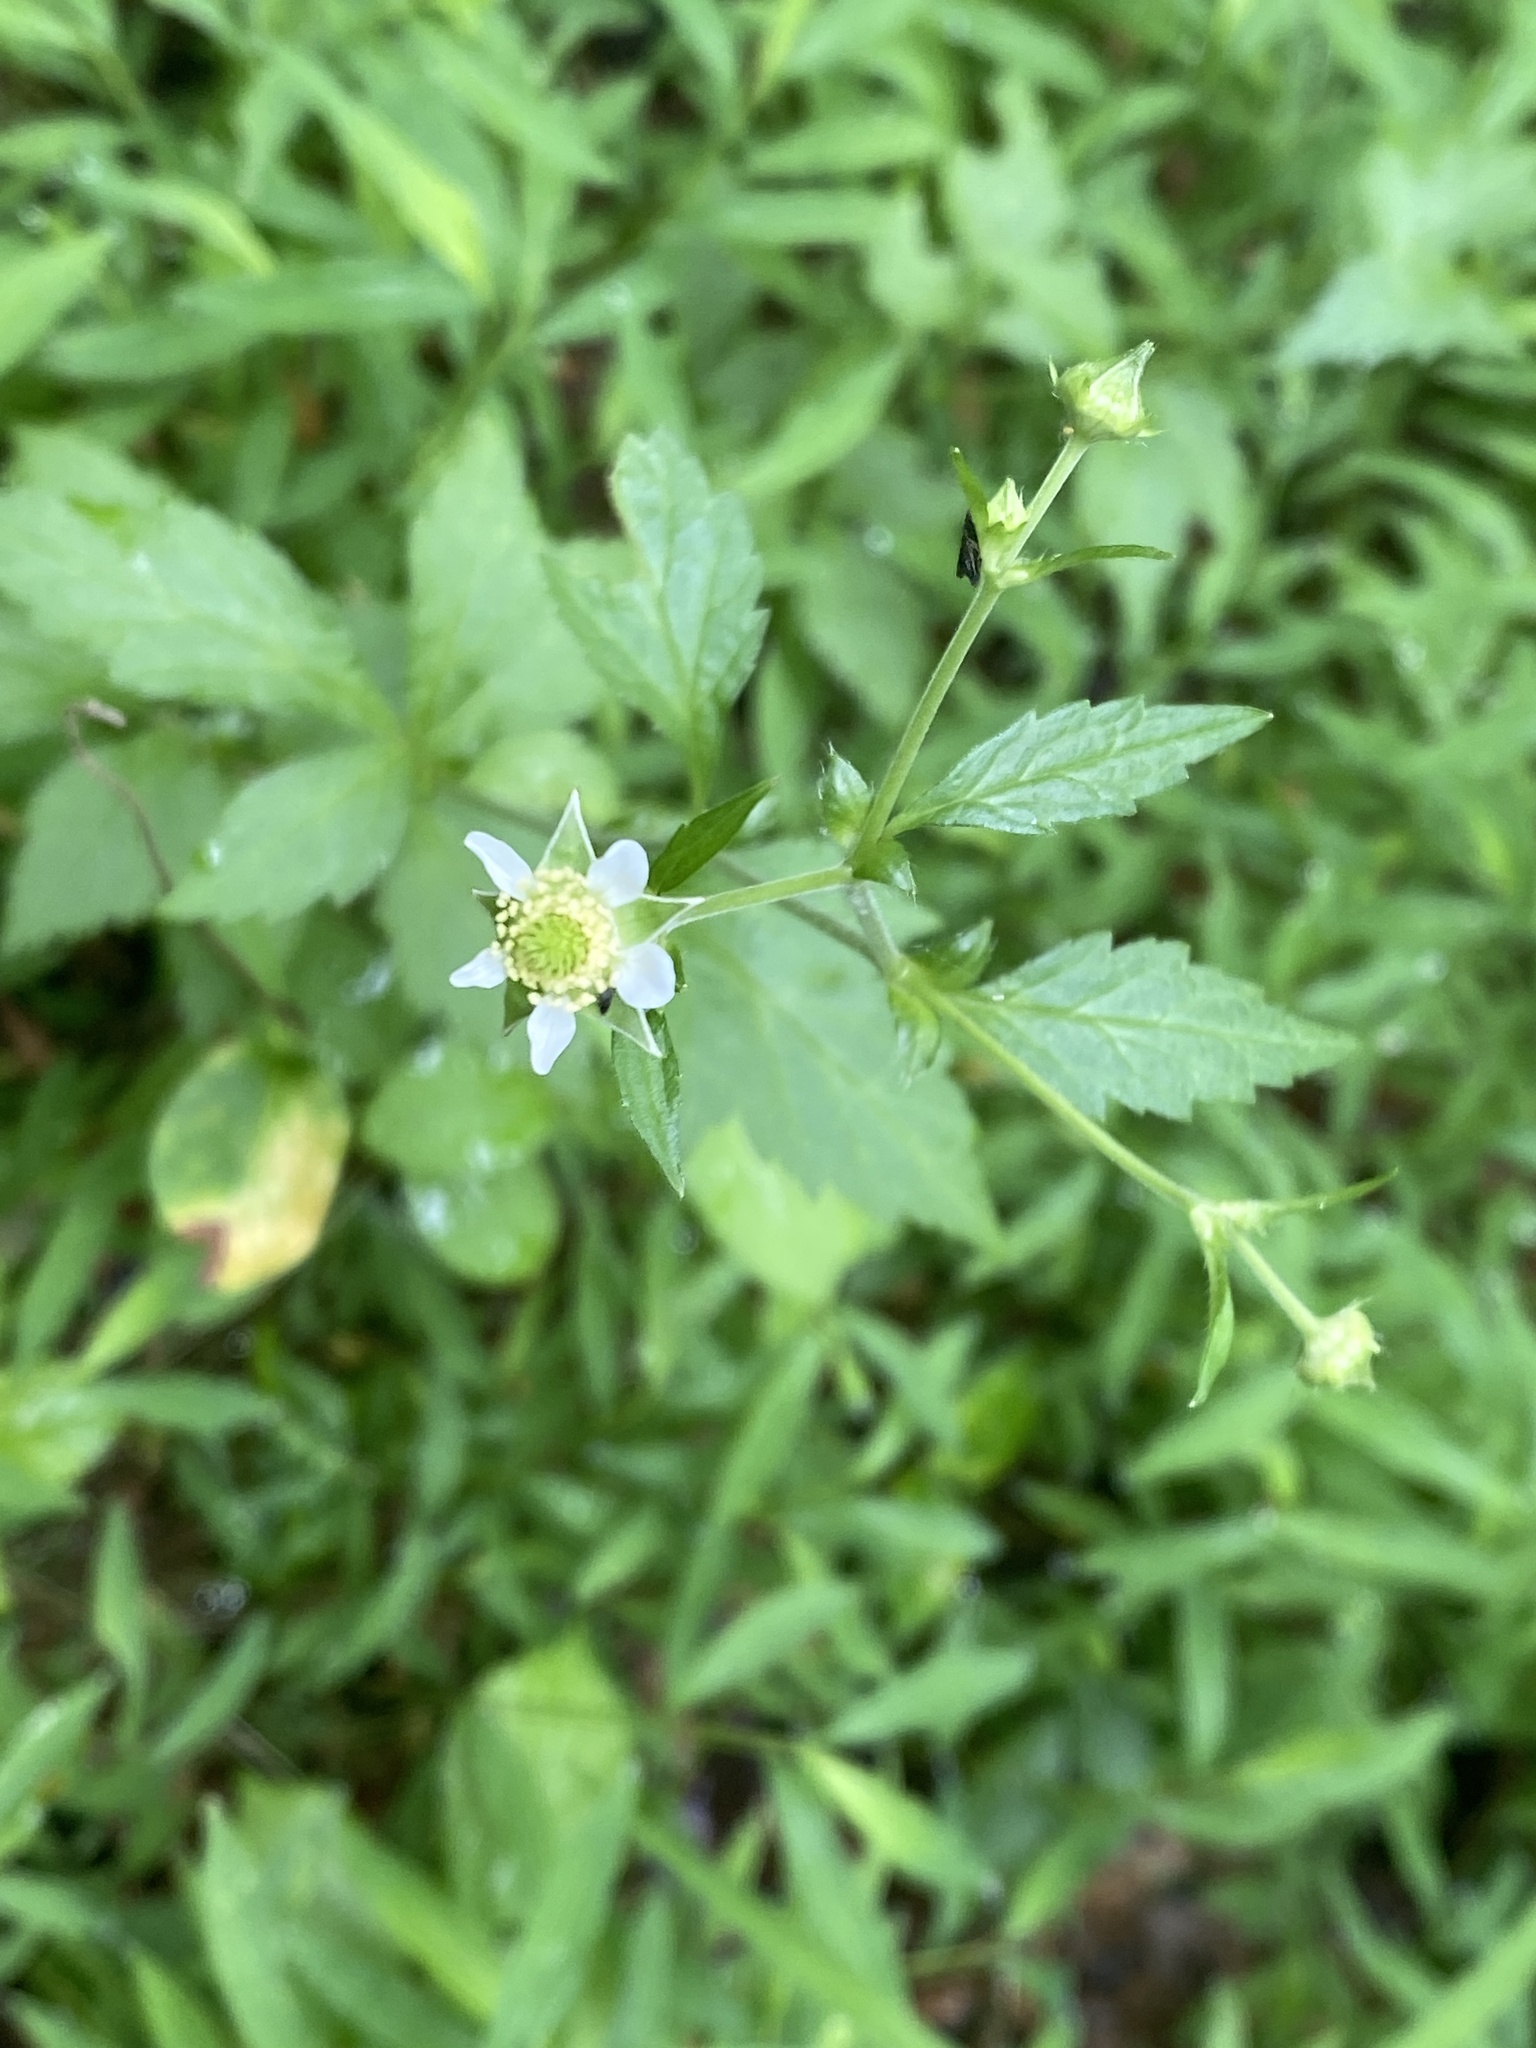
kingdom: Plantae
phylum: Tracheophyta
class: Magnoliopsida
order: Rosales
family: Rosaceae
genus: Geum
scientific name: Geum canadense
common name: White avens
